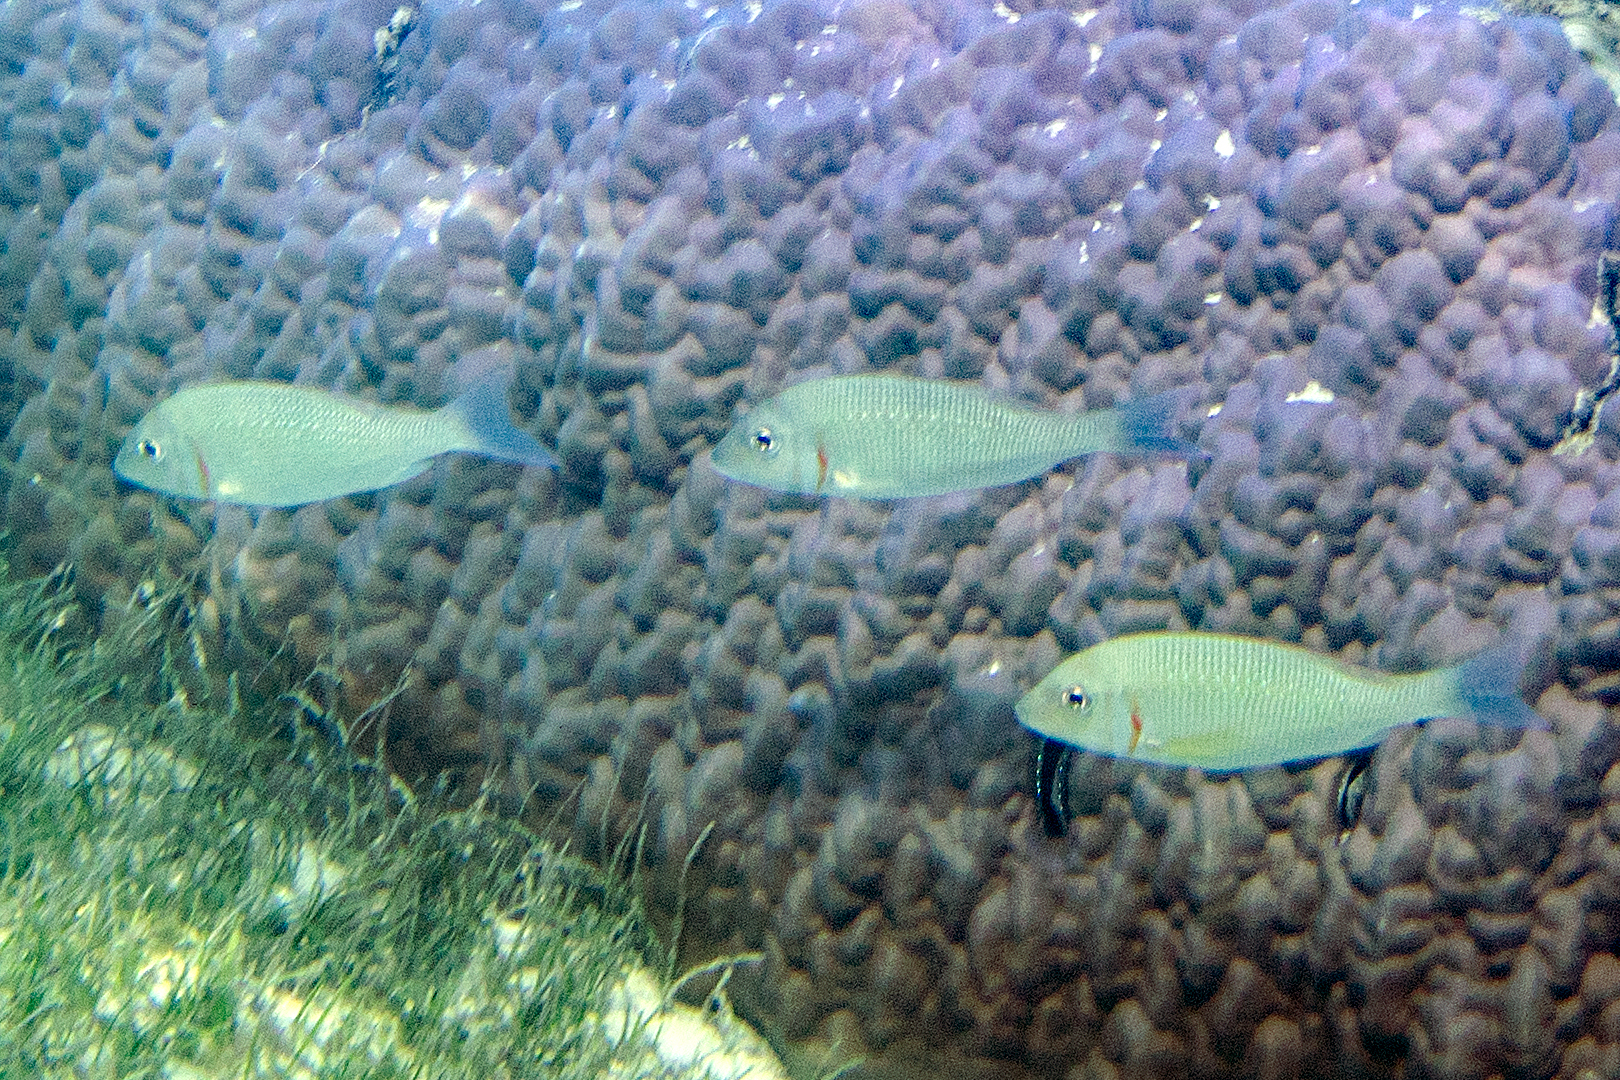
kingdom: Animalia
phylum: Chordata
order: Perciformes
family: Lethrinidae
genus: Lethrinus
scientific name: Lethrinus lentjan
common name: Redspot emperor
